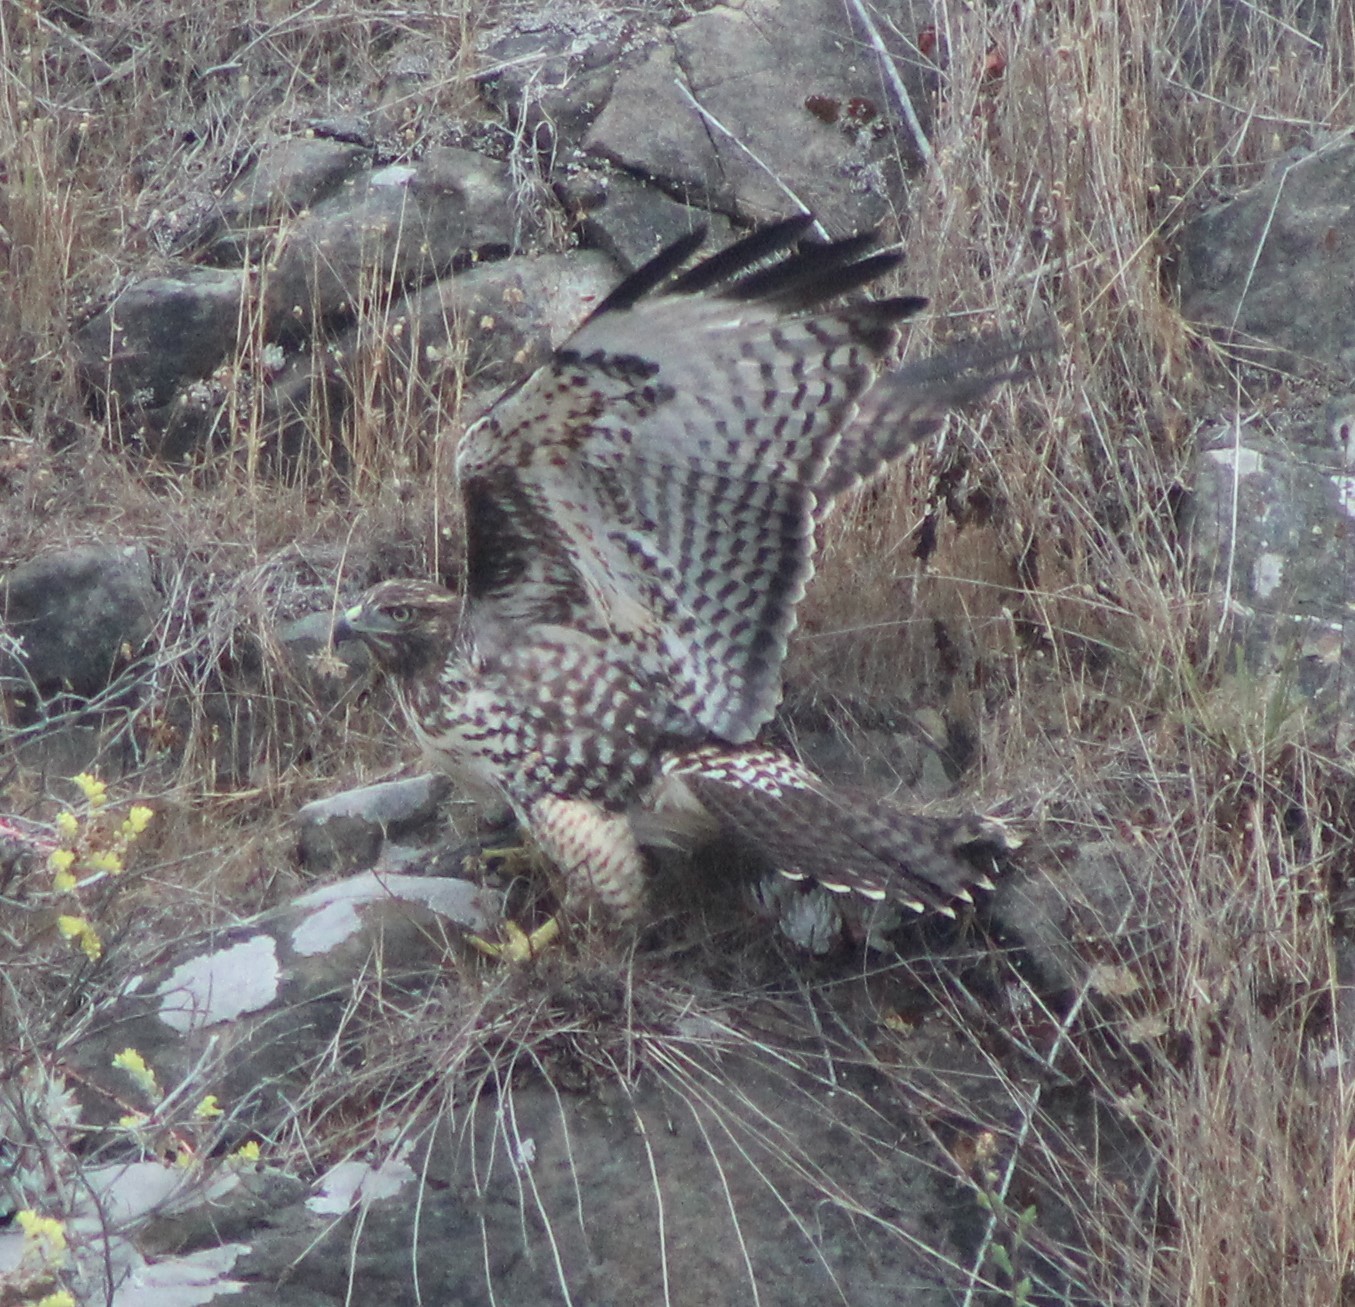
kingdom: Animalia
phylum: Chordata
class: Aves
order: Accipitriformes
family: Accipitridae
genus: Buteo
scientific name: Buteo jamaicensis
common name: Red-tailed hawk
